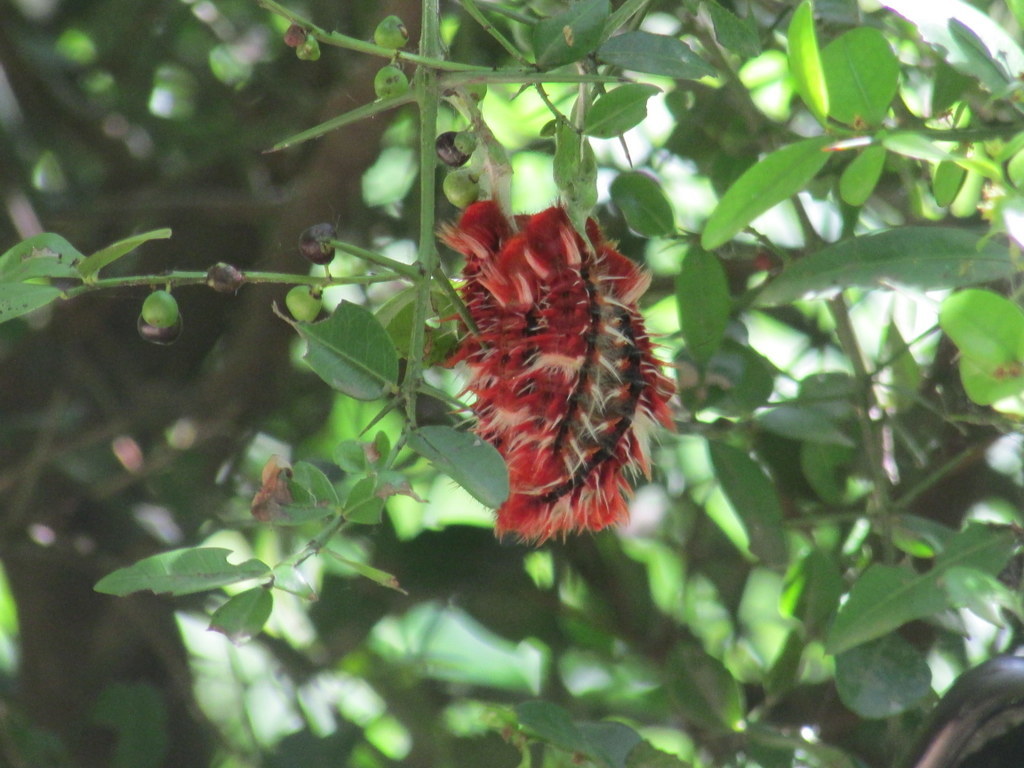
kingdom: Animalia
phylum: Arthropoda
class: Insecta
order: Lepidoptera
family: Nymphalidae
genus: Morpho
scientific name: Morpho epistrophus
